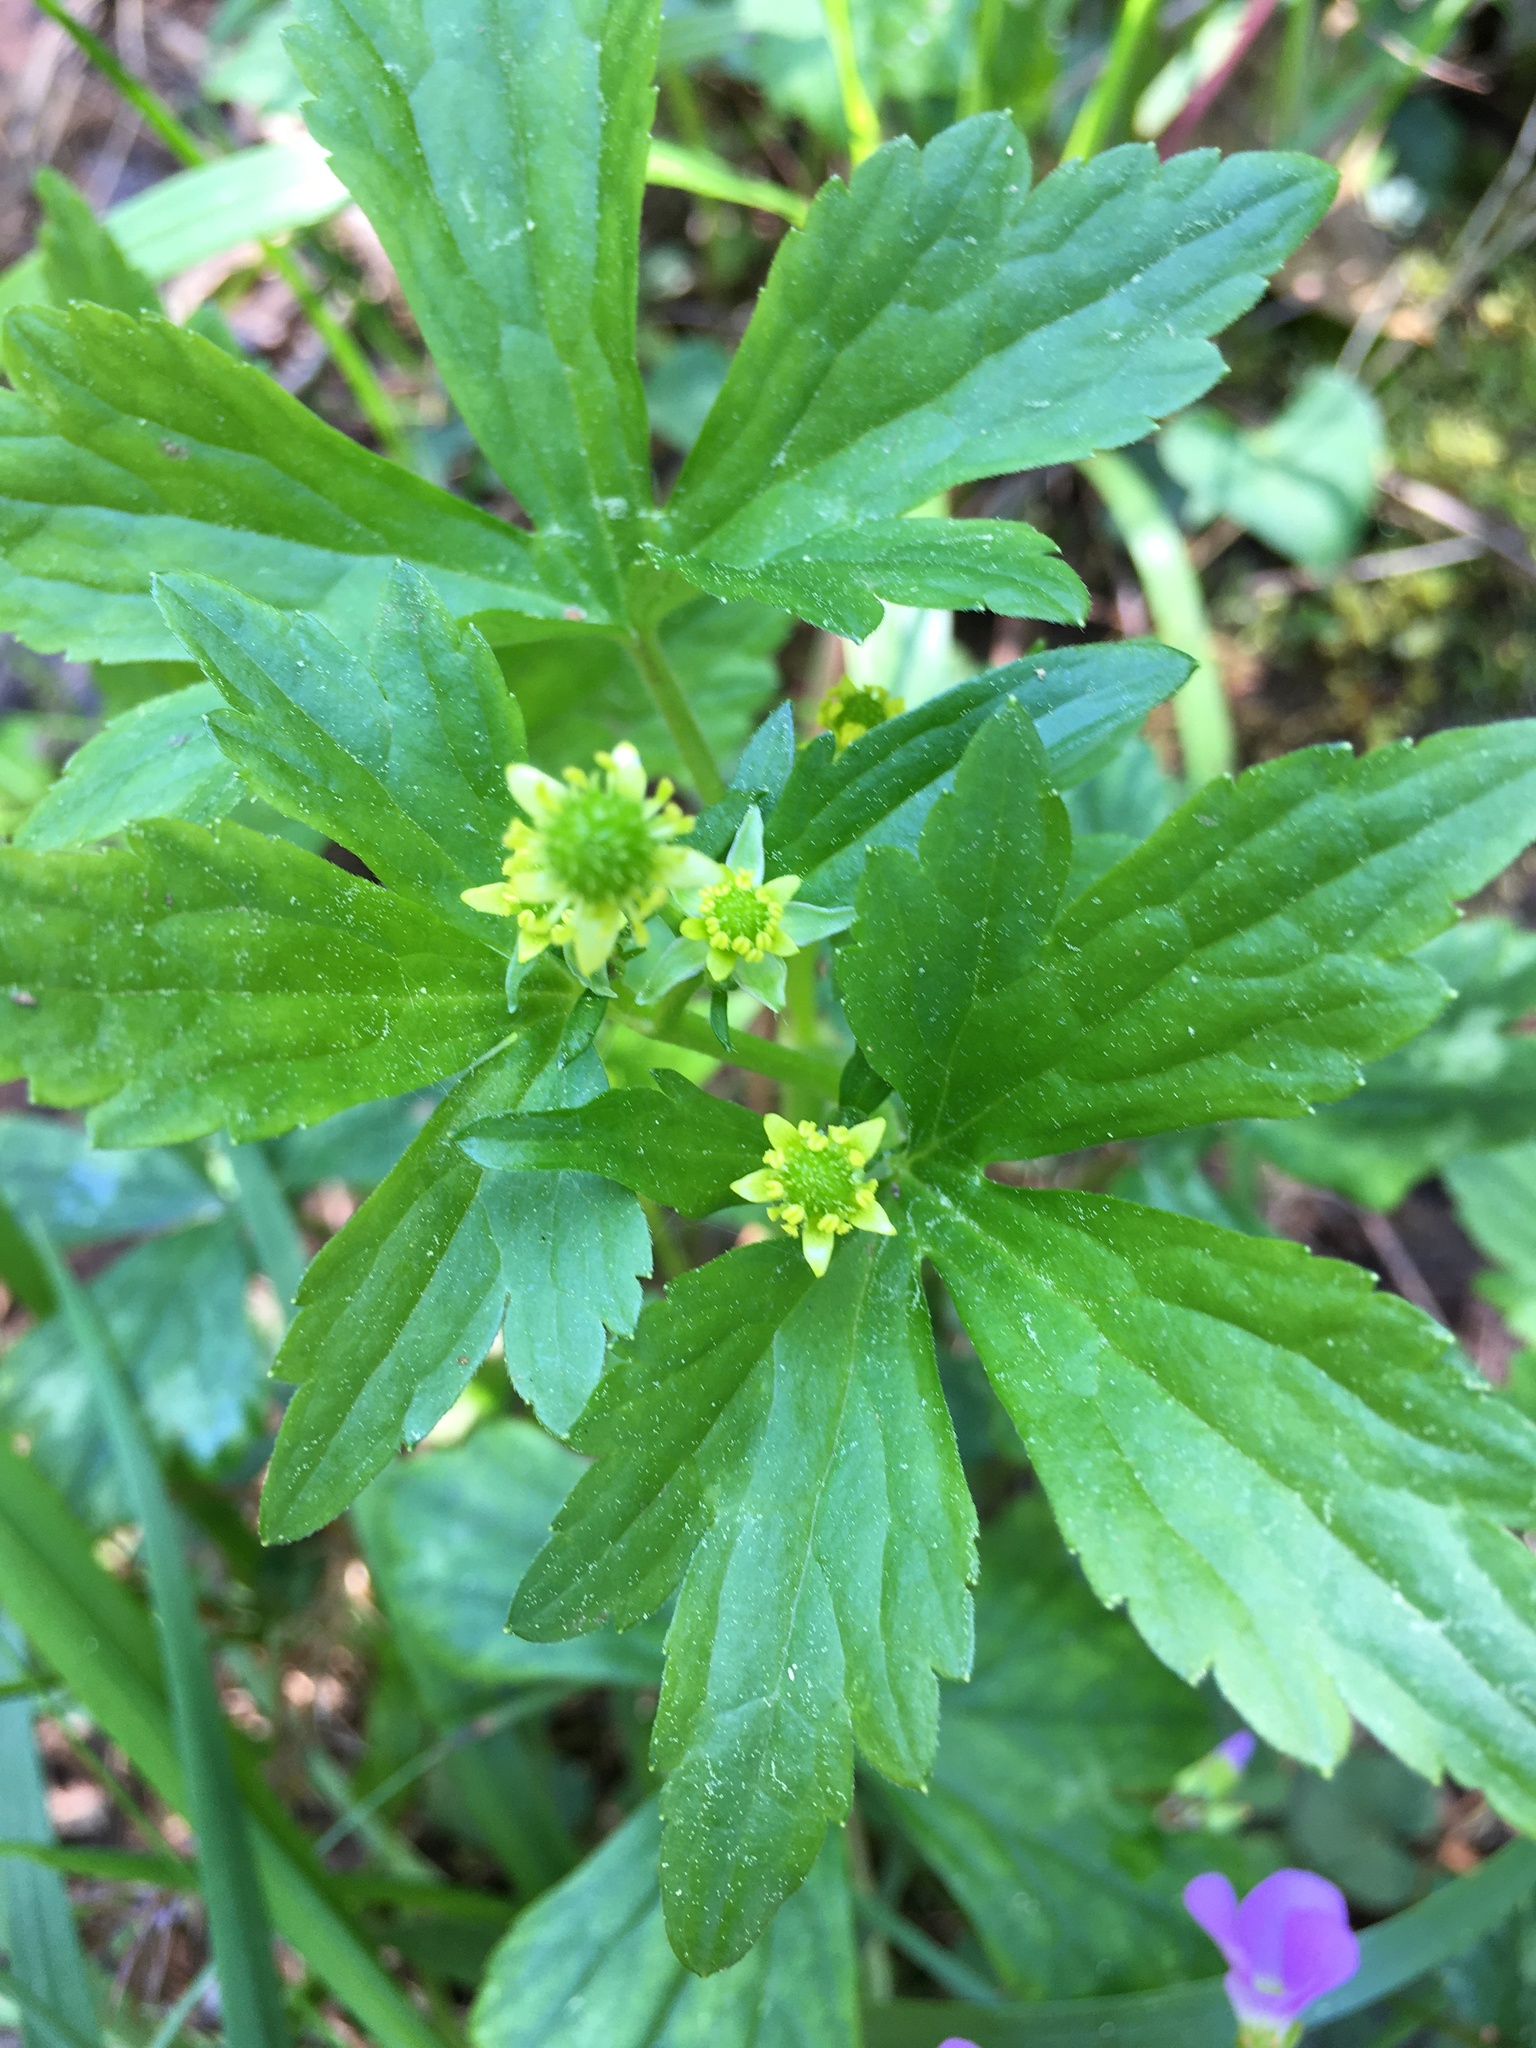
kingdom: Plantae
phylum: Tracheophyta
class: Magnoliopsida
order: Ranunculales
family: Ranunculaceae
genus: Ranunculus
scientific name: Ranunculus recurvatus
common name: Blisterwort
